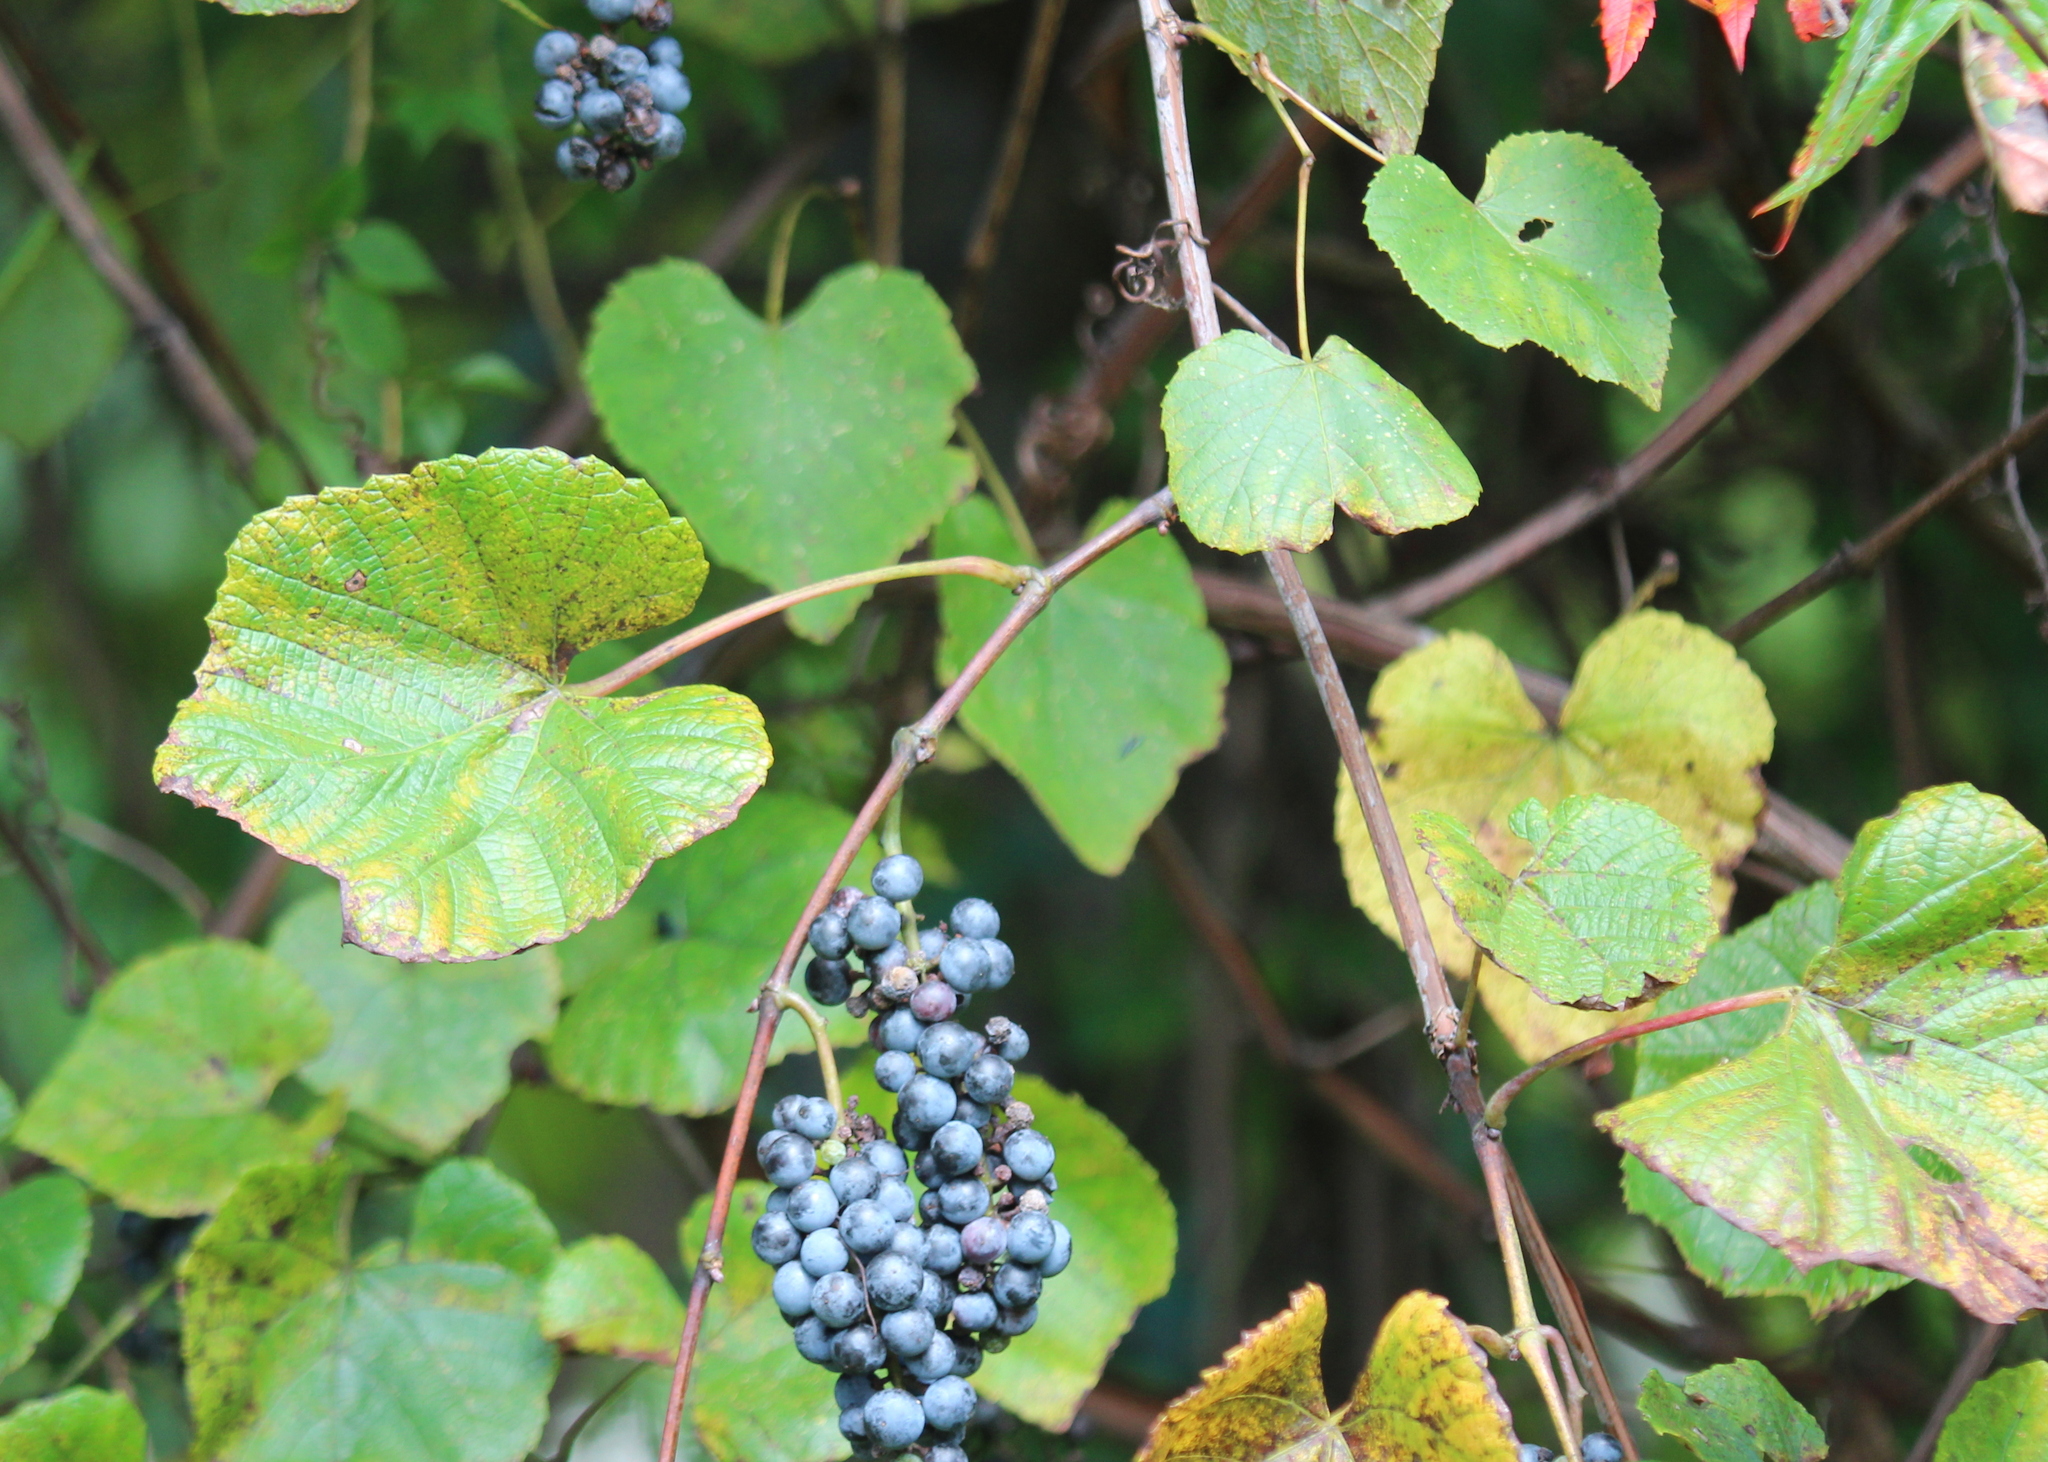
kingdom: Plantae
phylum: Tracheophyta
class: Magnoliopsida
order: Vitales
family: Vitaceae
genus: Vitis
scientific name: Vitis aestivalis
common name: Pigeon grape
